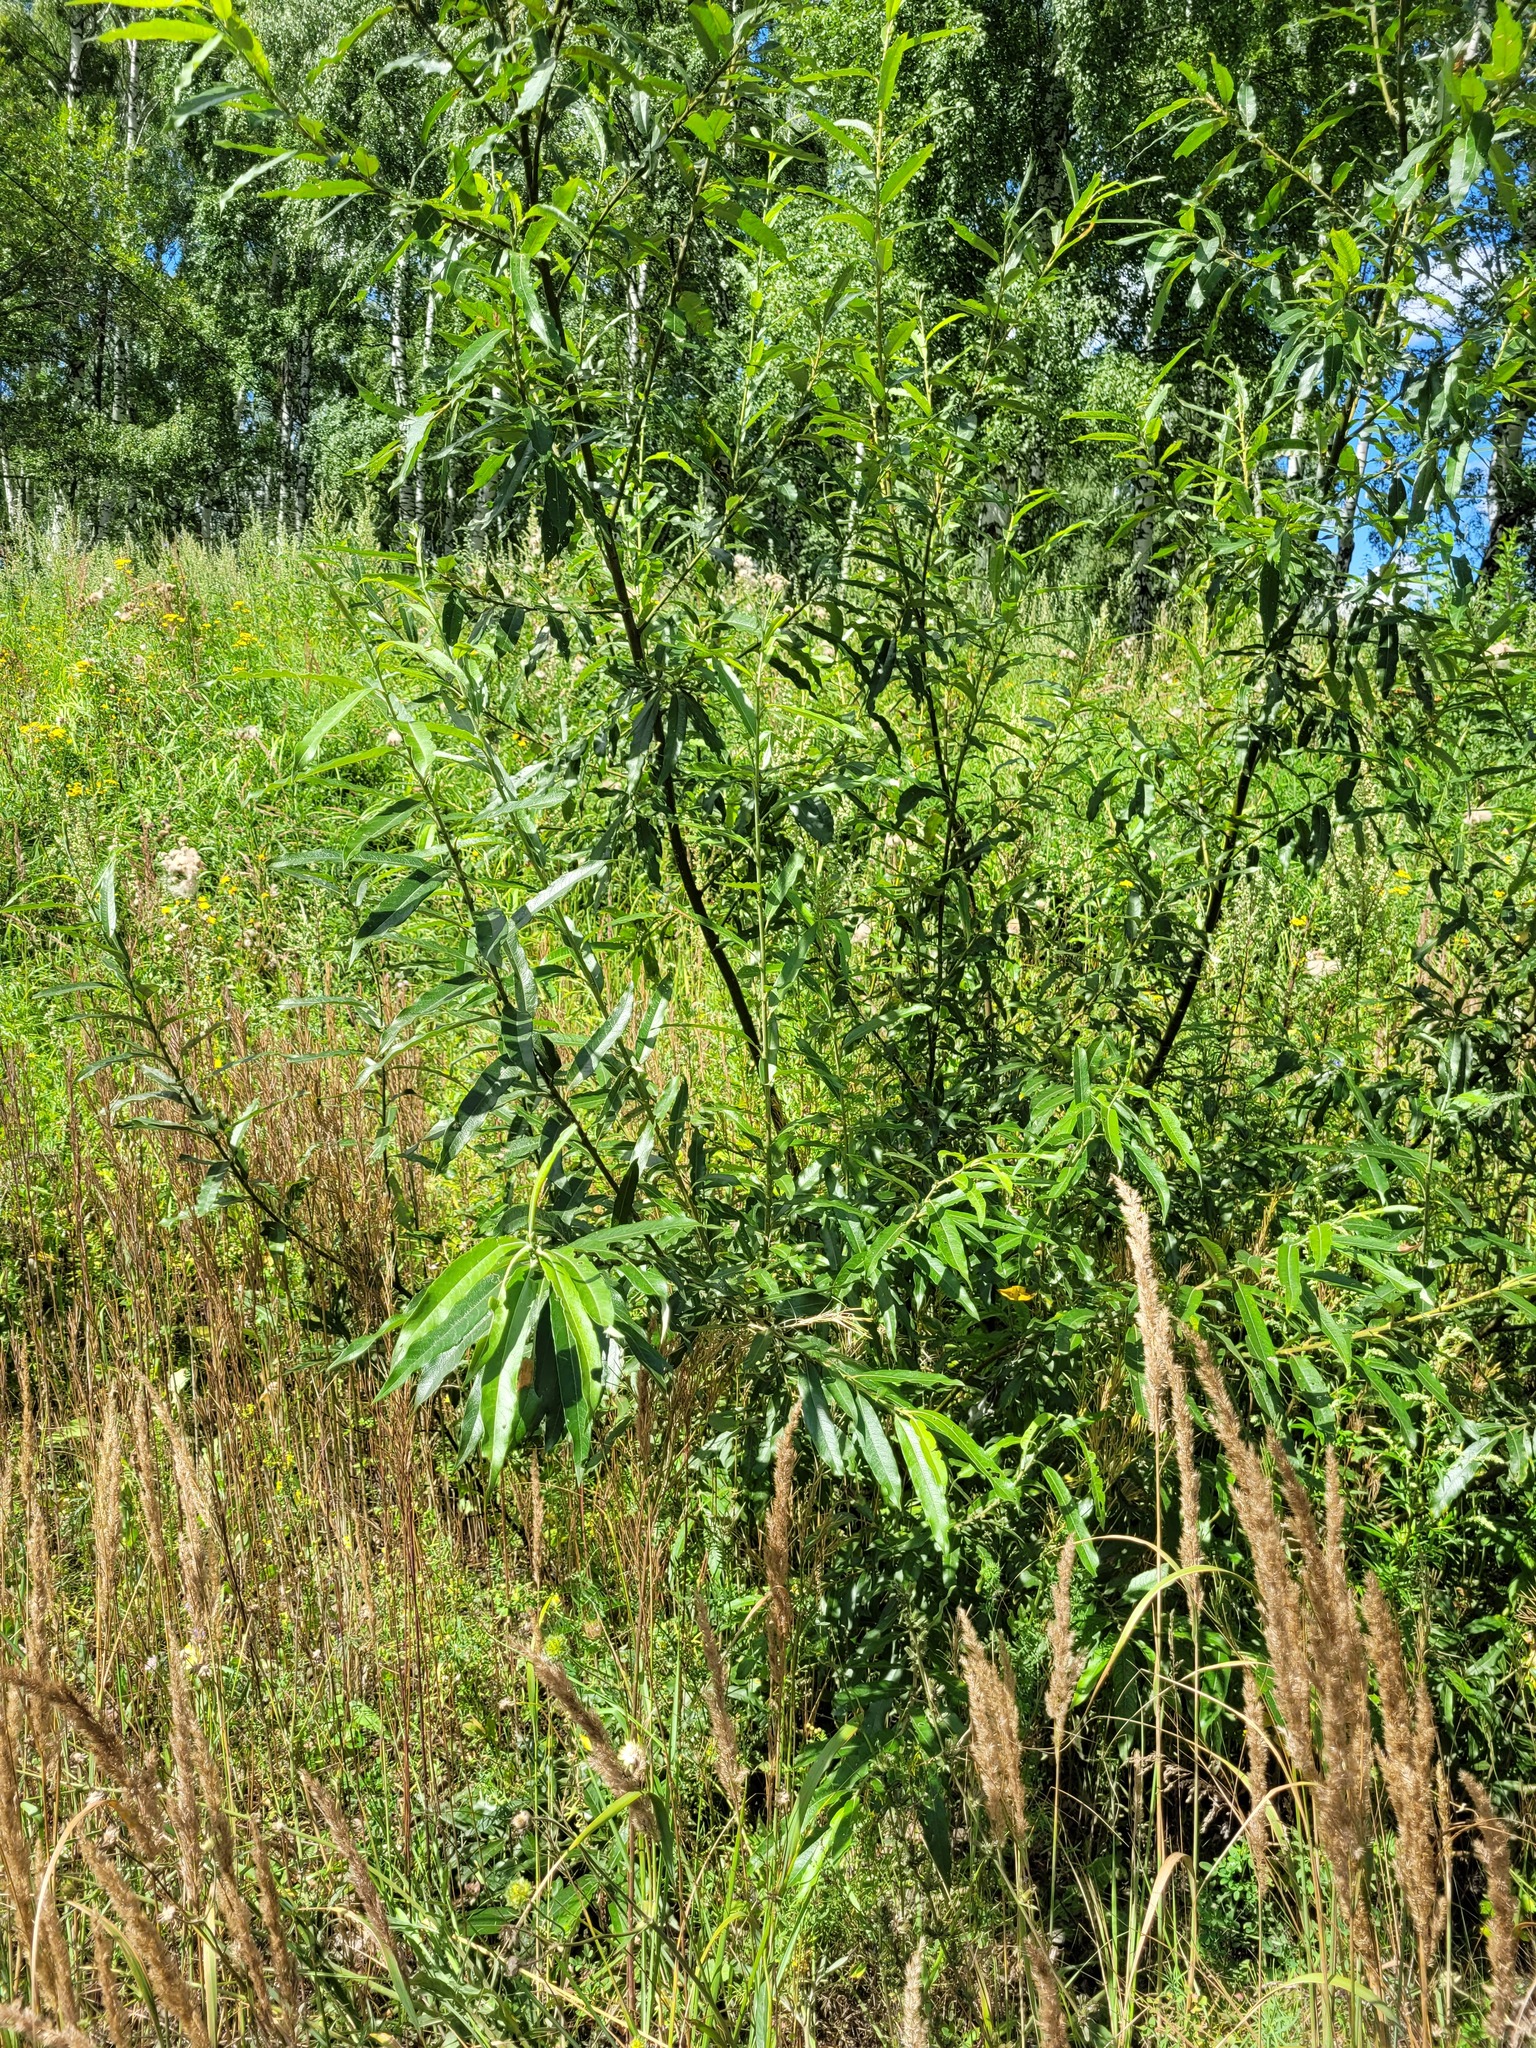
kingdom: Plantae
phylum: Tracheophyta
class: Magnoliopsida
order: Malpighiales
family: Salicaceae
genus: Salix
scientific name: Salix gmelinii
